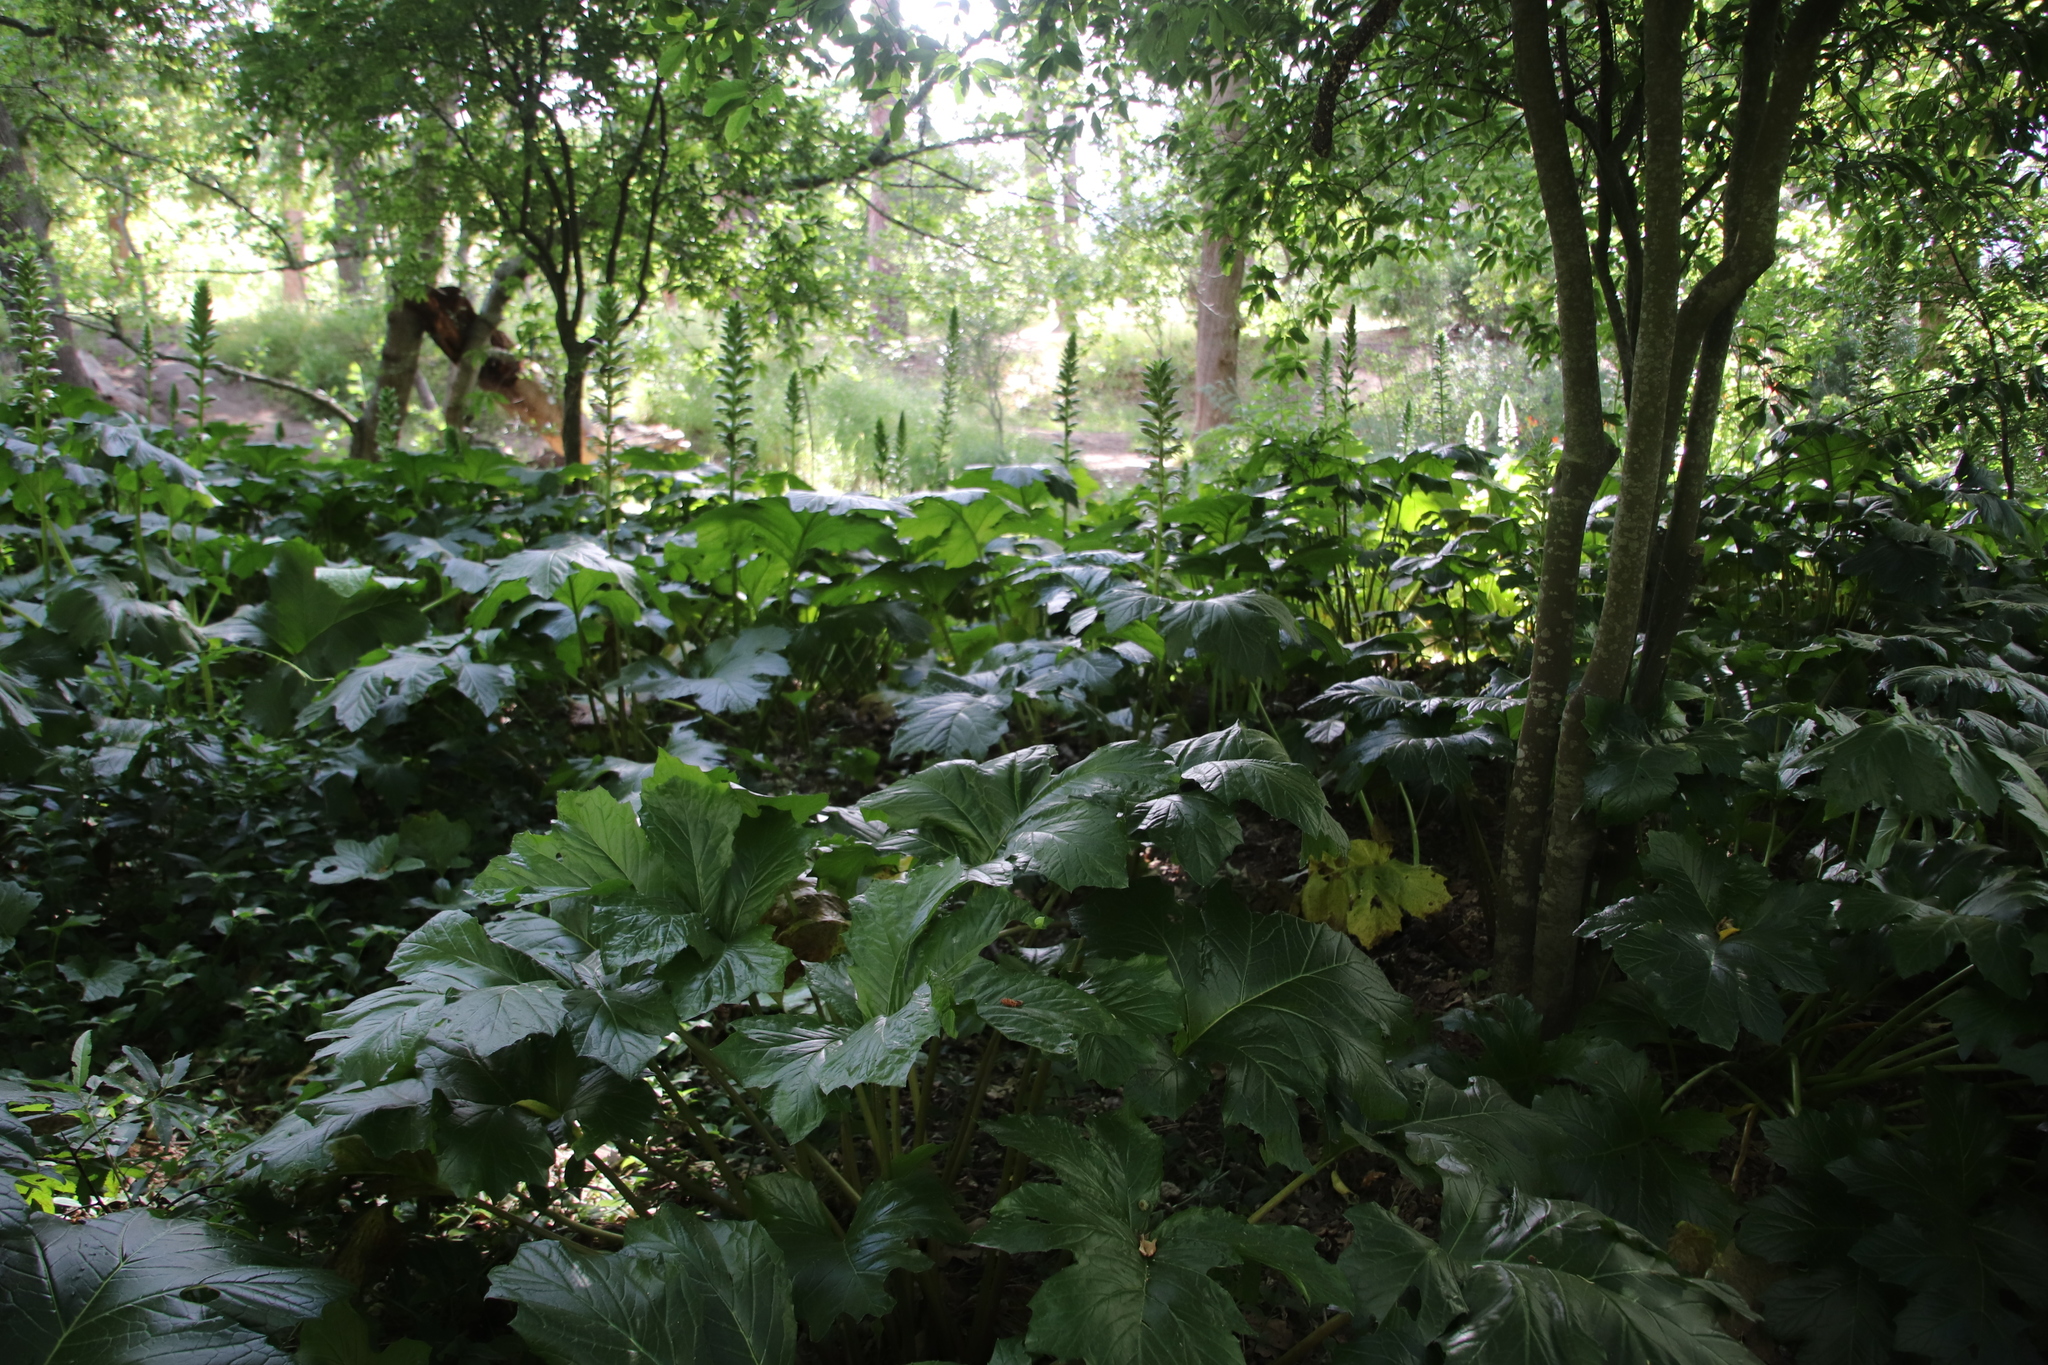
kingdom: Plantae
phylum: Tracheophyta
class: Magnoliopsida
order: Lamiales
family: Acanthaceae
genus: Acanthus
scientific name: Acanthus mollis
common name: Bear's-breech
